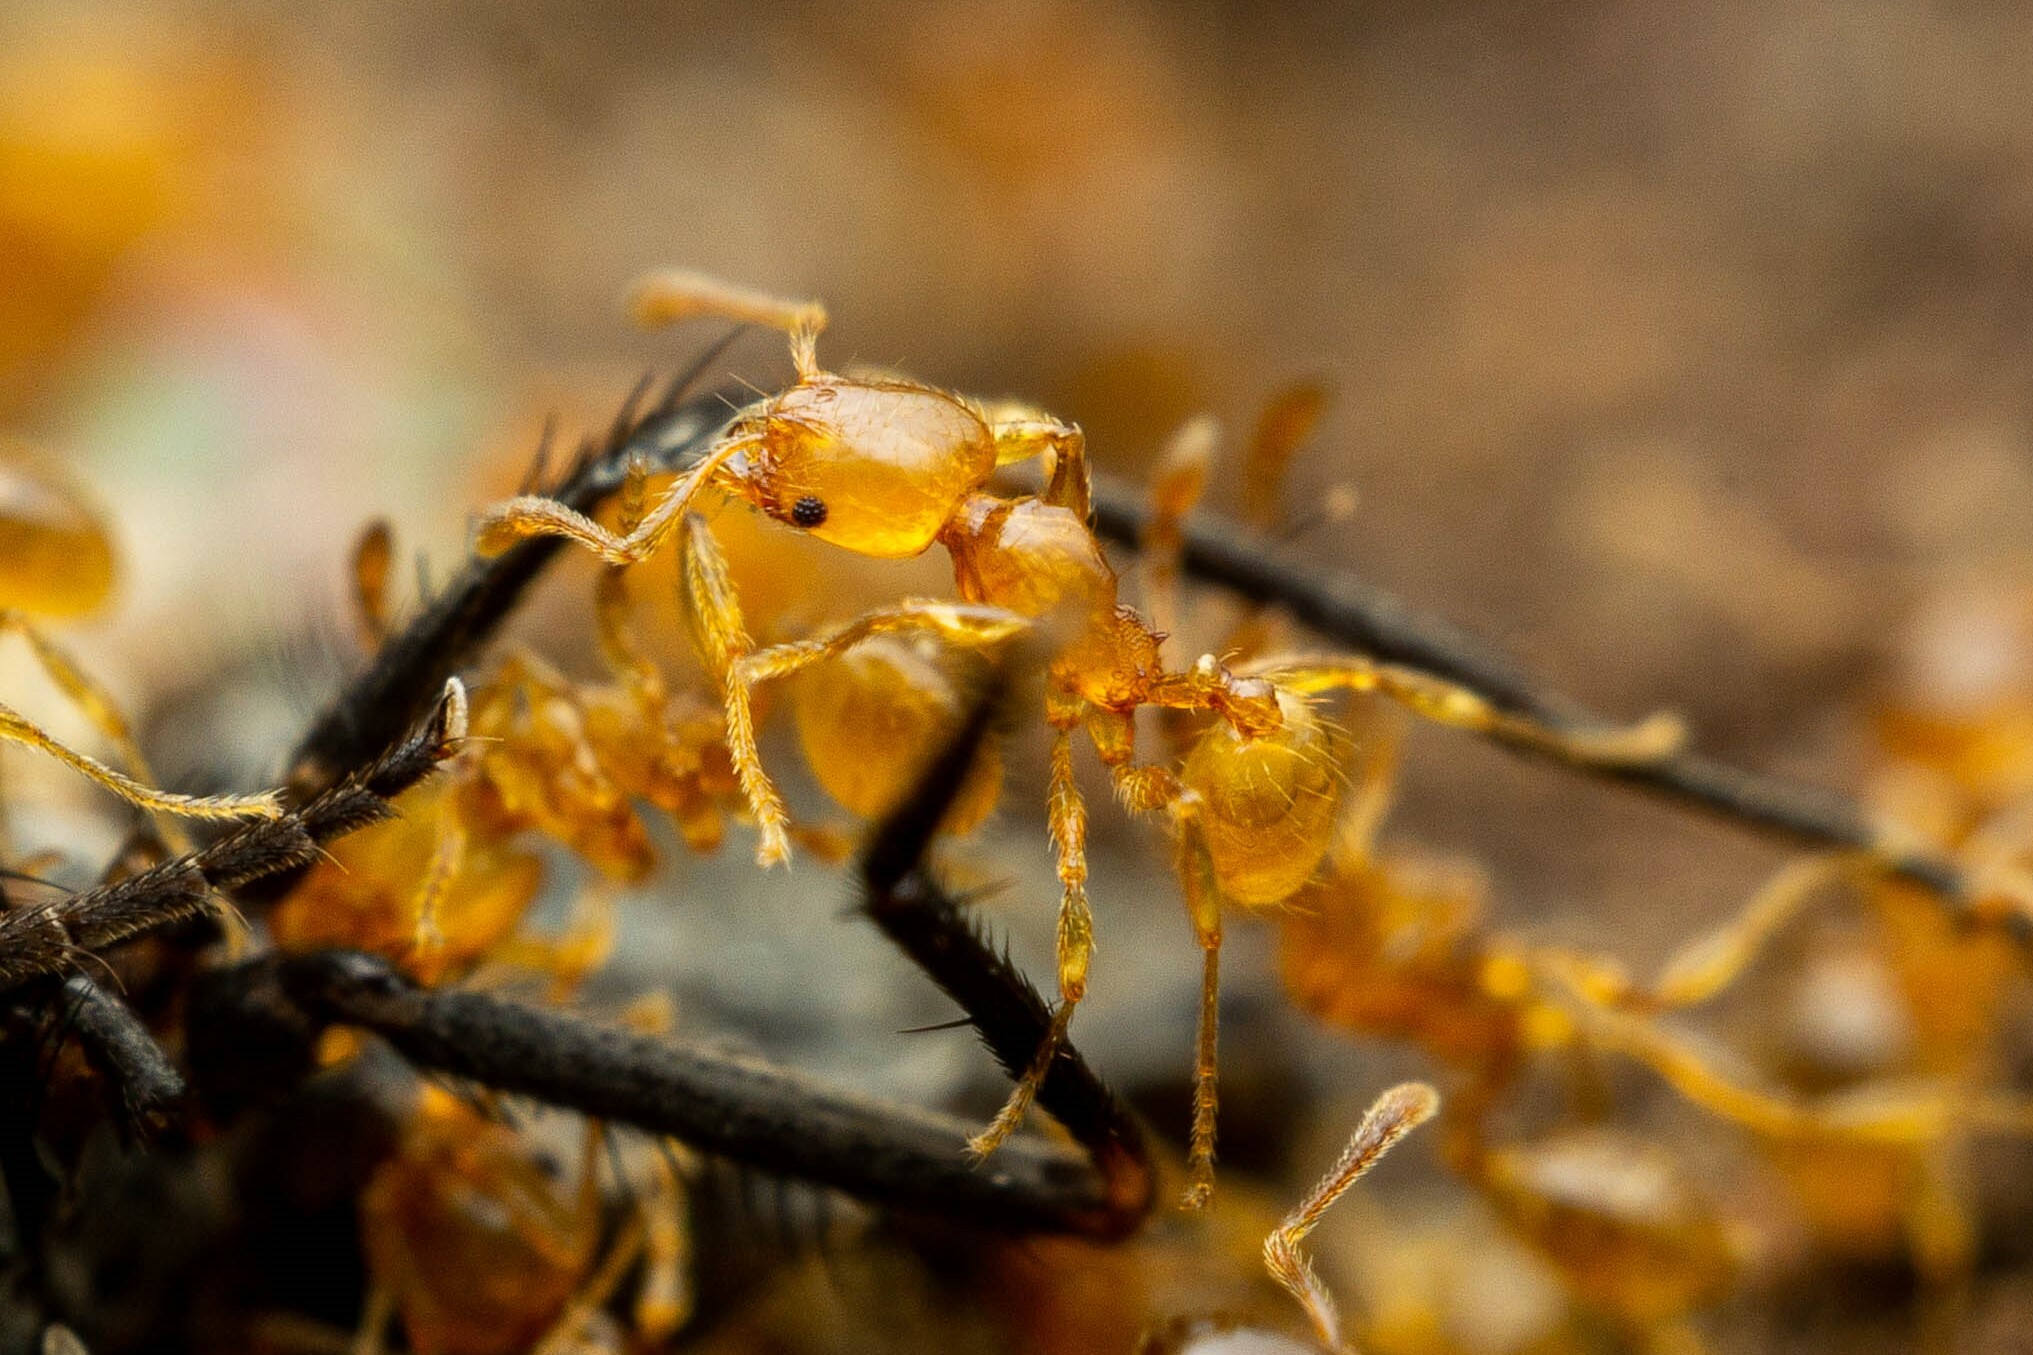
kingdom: Animalia
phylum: Arthropoda
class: Insecta
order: Hymenoptera
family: Formicidae
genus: Pheidole
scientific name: Pheidole tysoni
